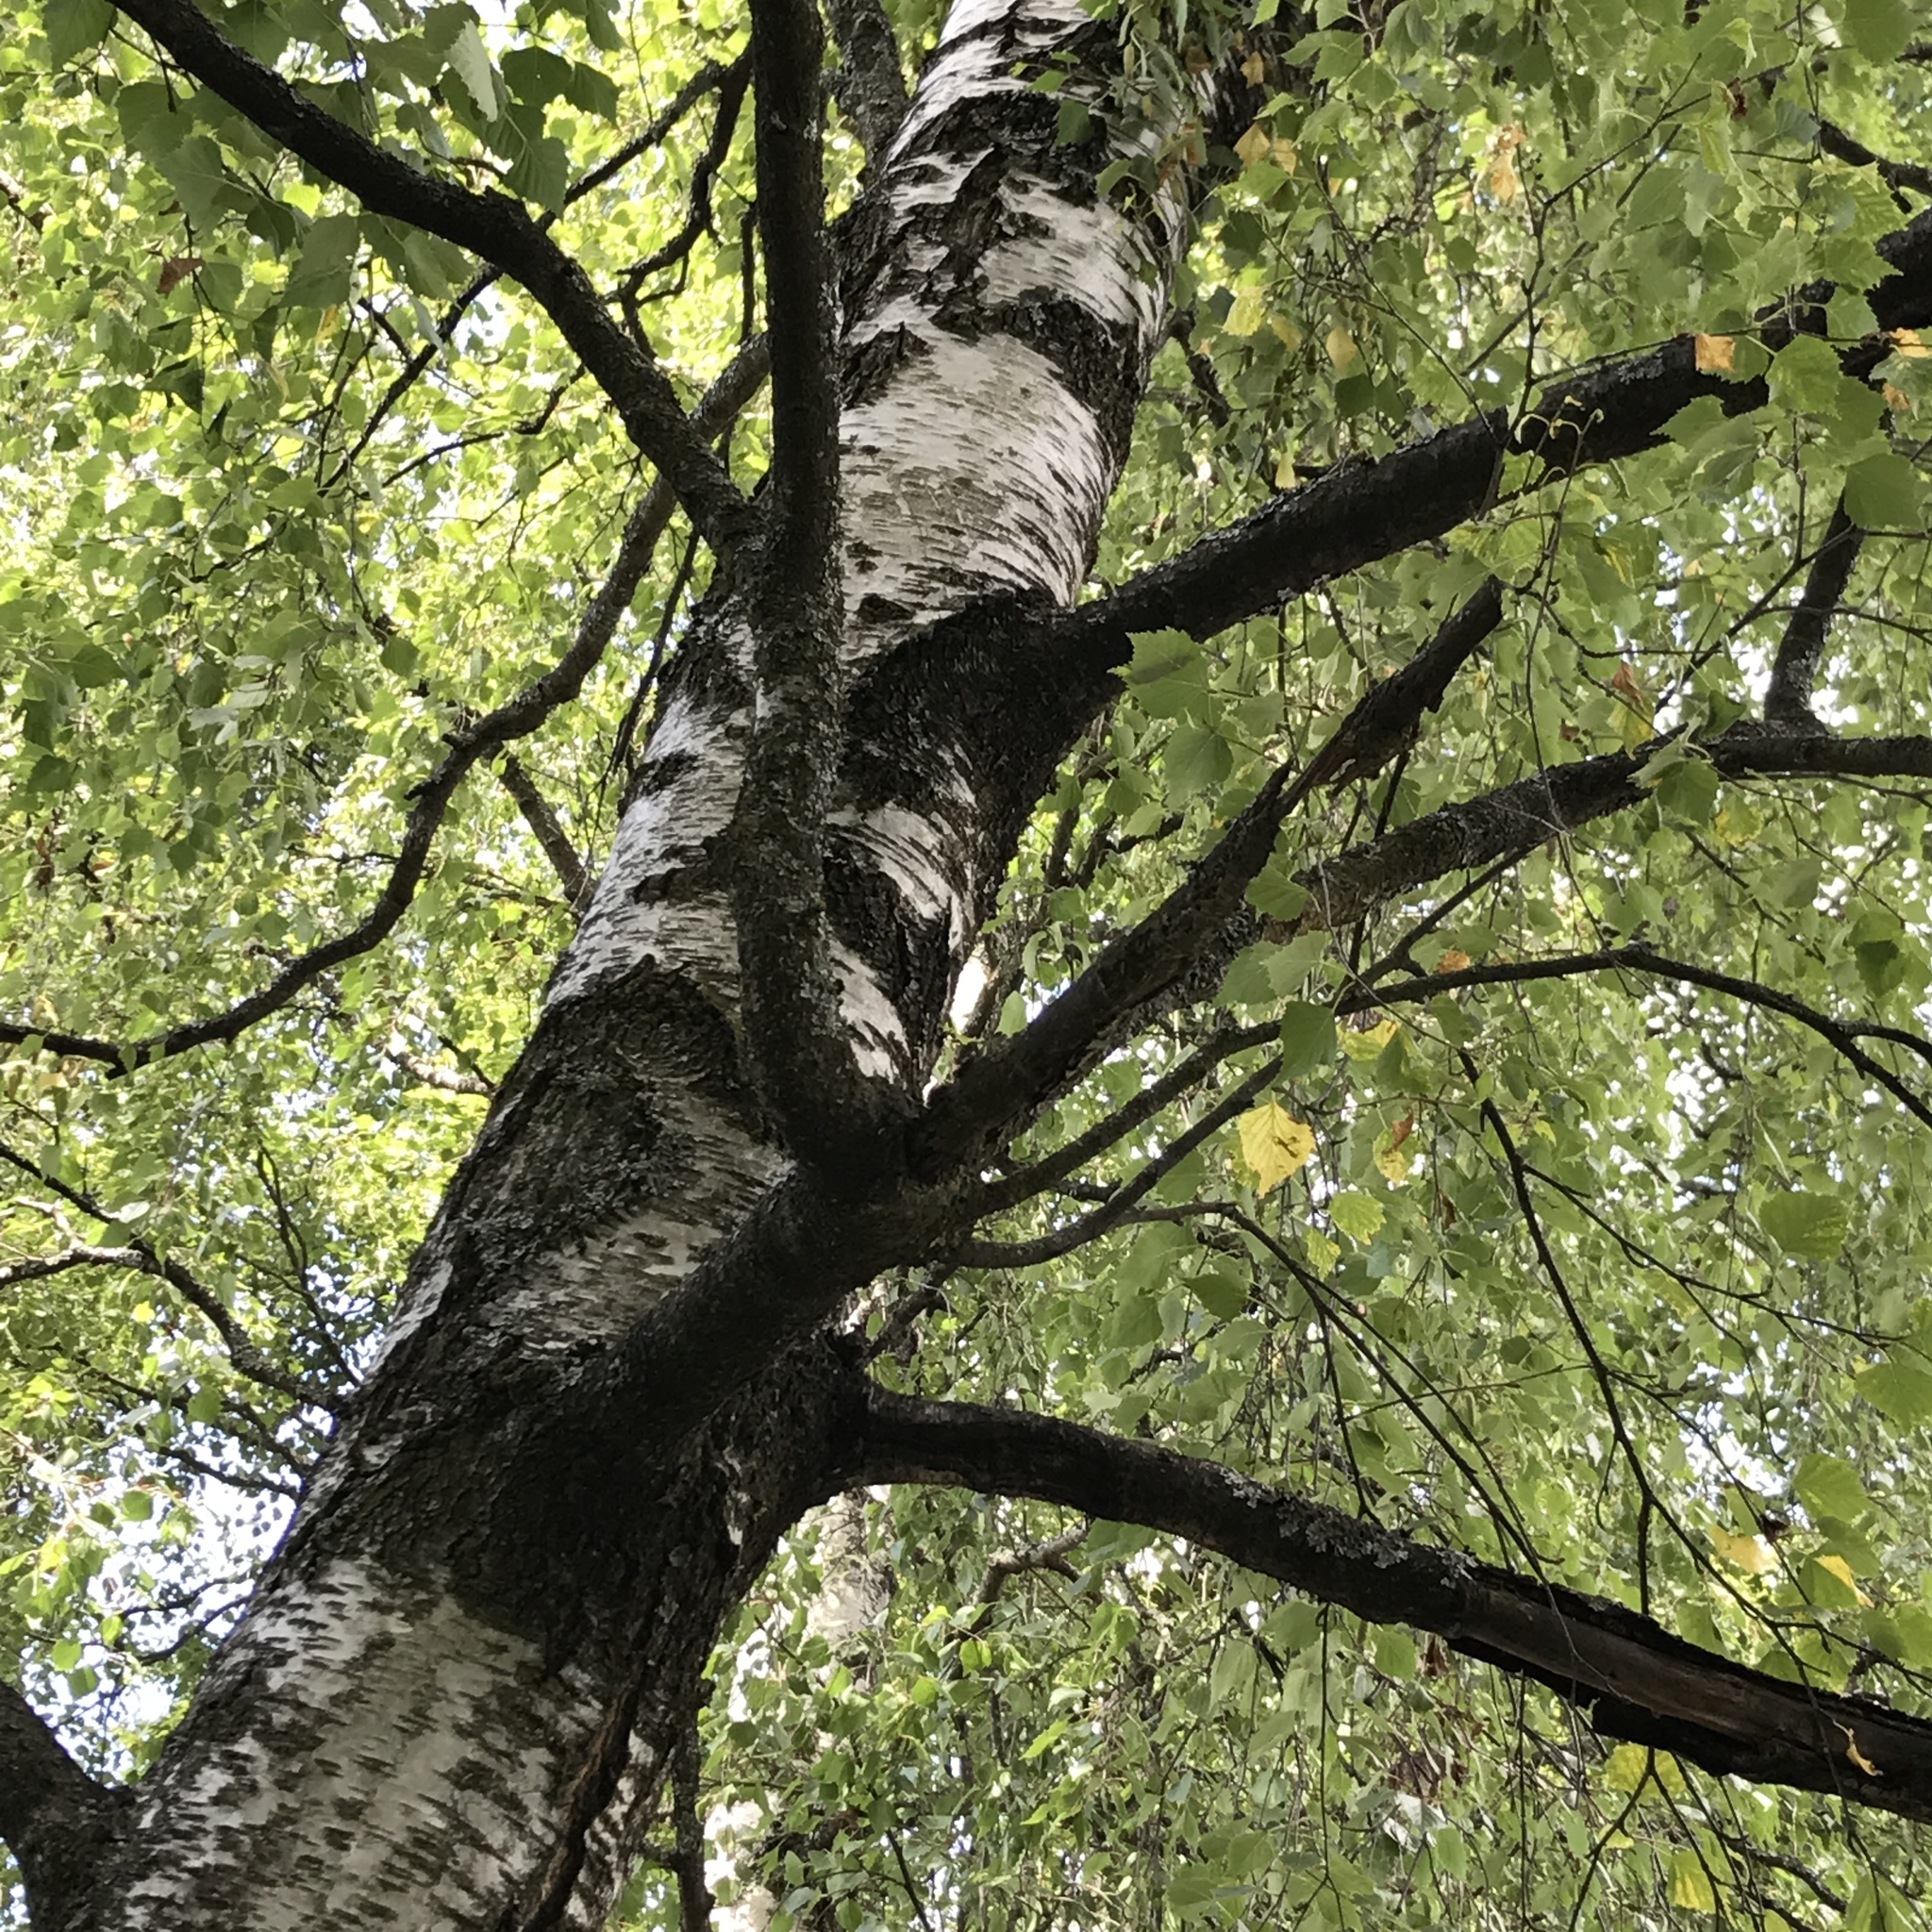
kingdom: Plantae
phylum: Tracheophyta
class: Magnoliopsida
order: Fagales
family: Betulaceae
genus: Betula
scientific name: Betula pubescens
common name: Downy birch
